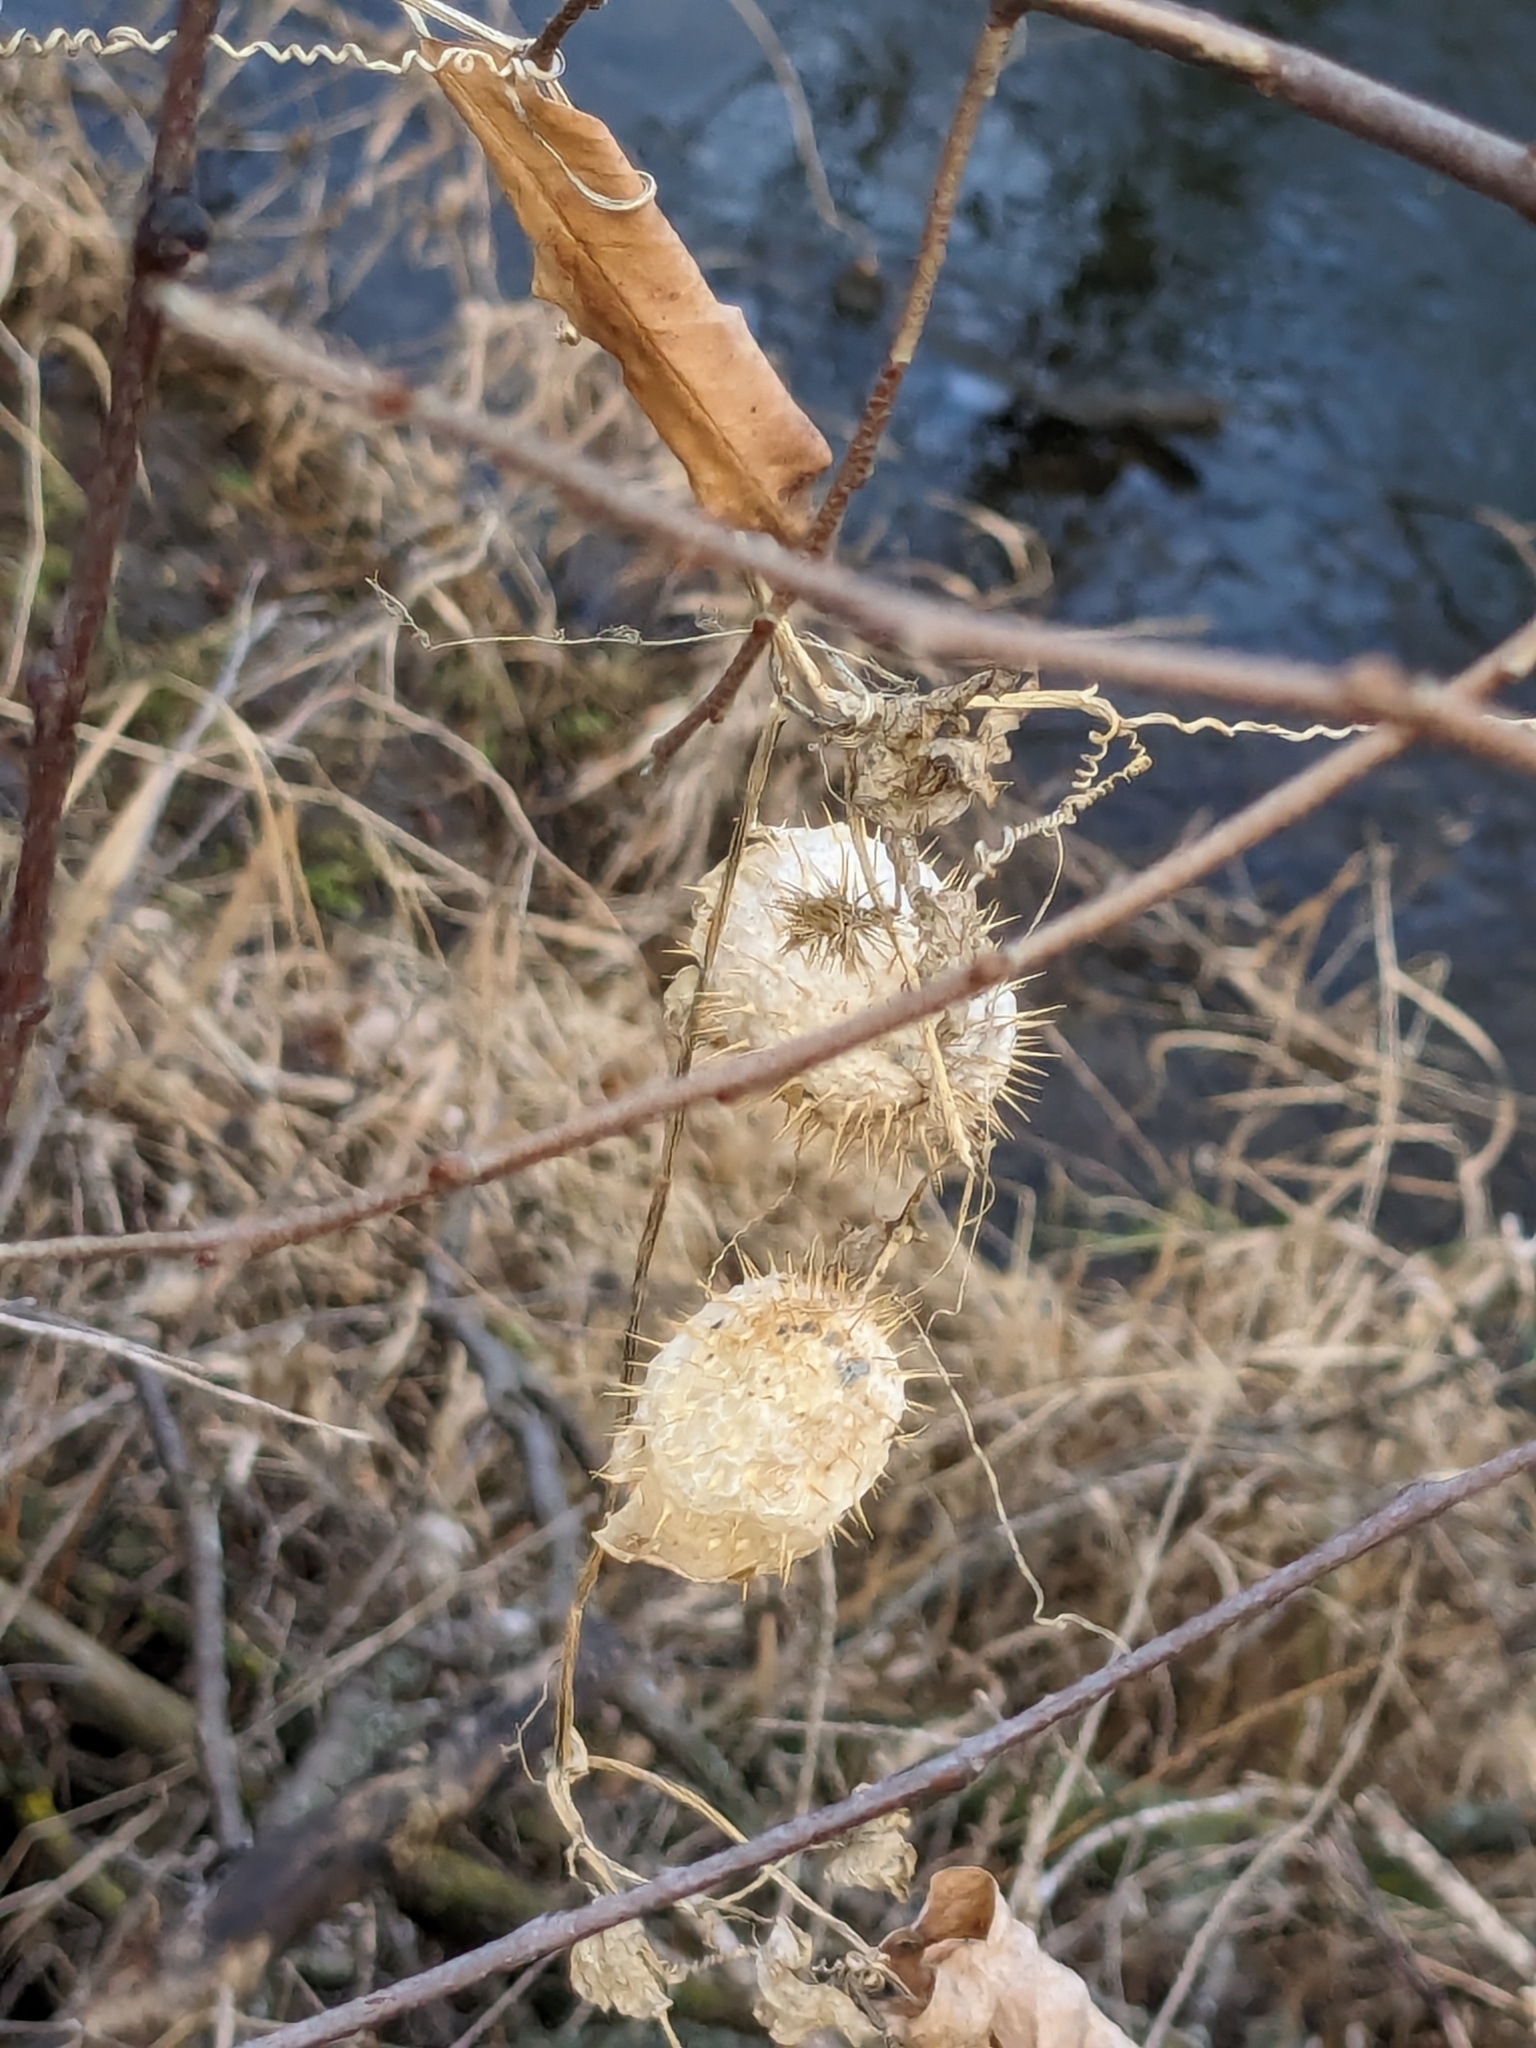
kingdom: Plantae
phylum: Tracheophyta
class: Magnoliopsida
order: Cucurbitales
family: Cucurbitaceae
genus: Echinocystis
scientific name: Echinocystis lobata
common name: Wild cucumber
